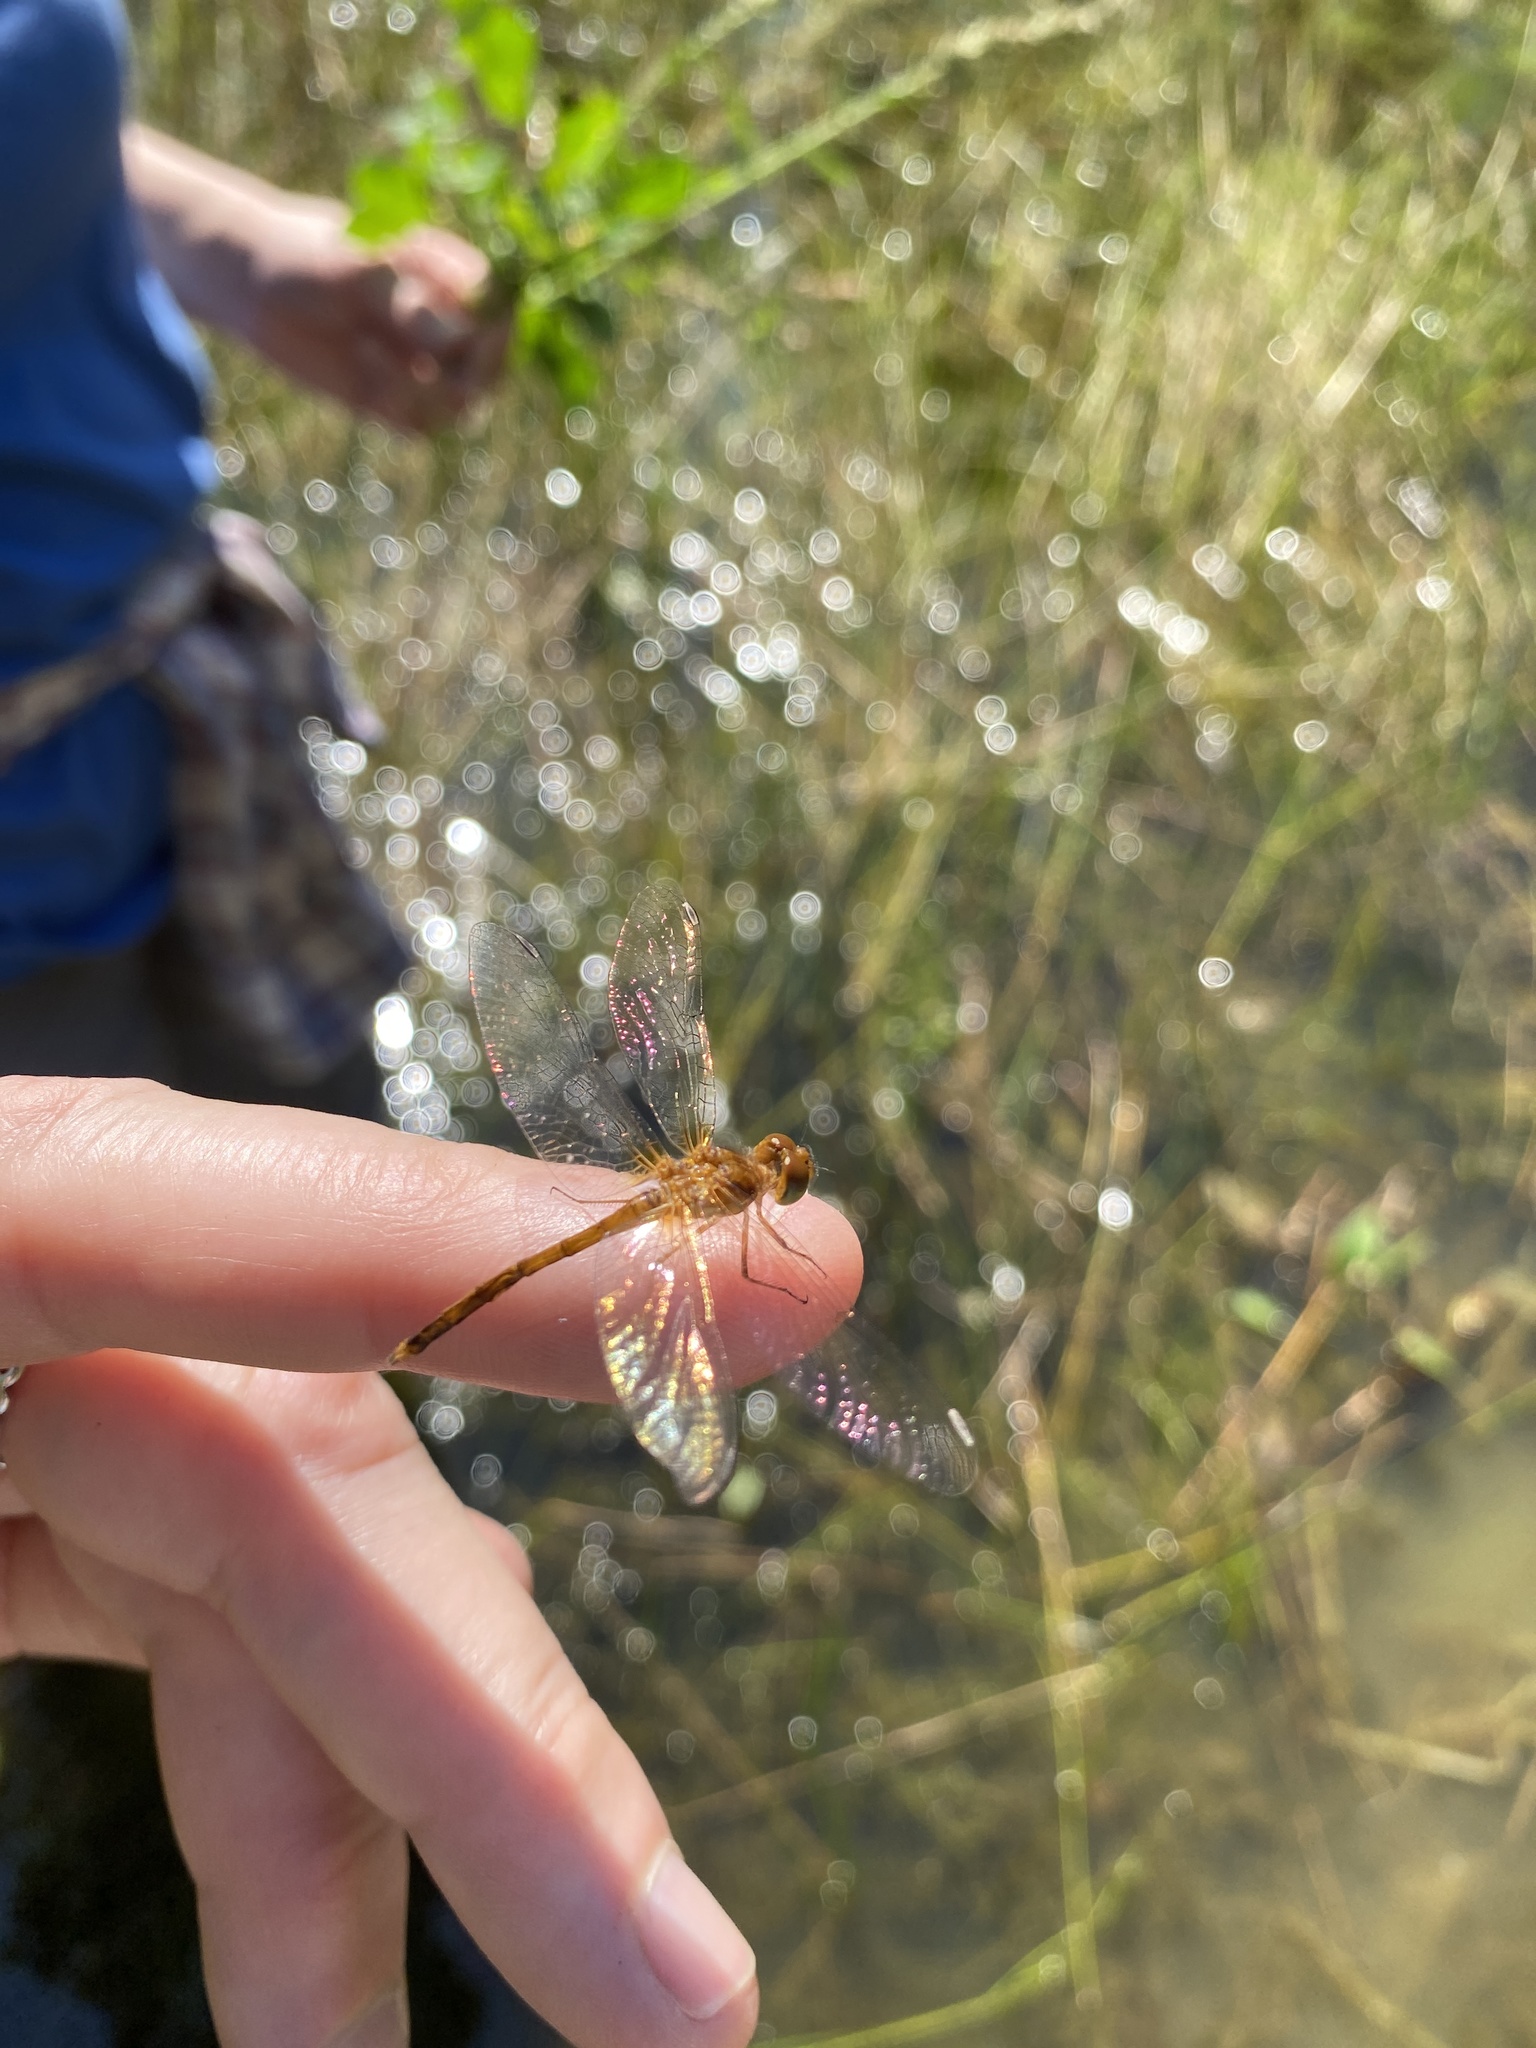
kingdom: Animalia
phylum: Arthropoda
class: Insecta
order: Odonata
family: Libellulidae
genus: Sympetrum
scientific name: Sympetrum vicinum
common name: Autumn meadowhawk
